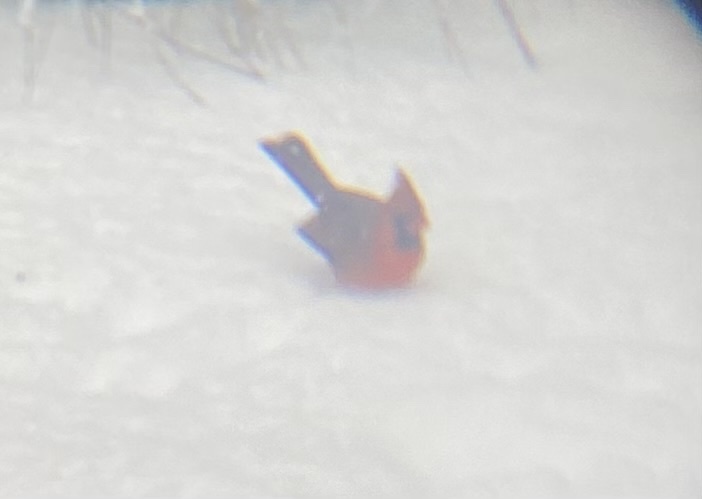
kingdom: Animalia
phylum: Chordata
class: Aves
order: Passeriformes
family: Cardinalidae
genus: Cardinalis
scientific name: Cardinalis cardinalis
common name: Northern cardinal
